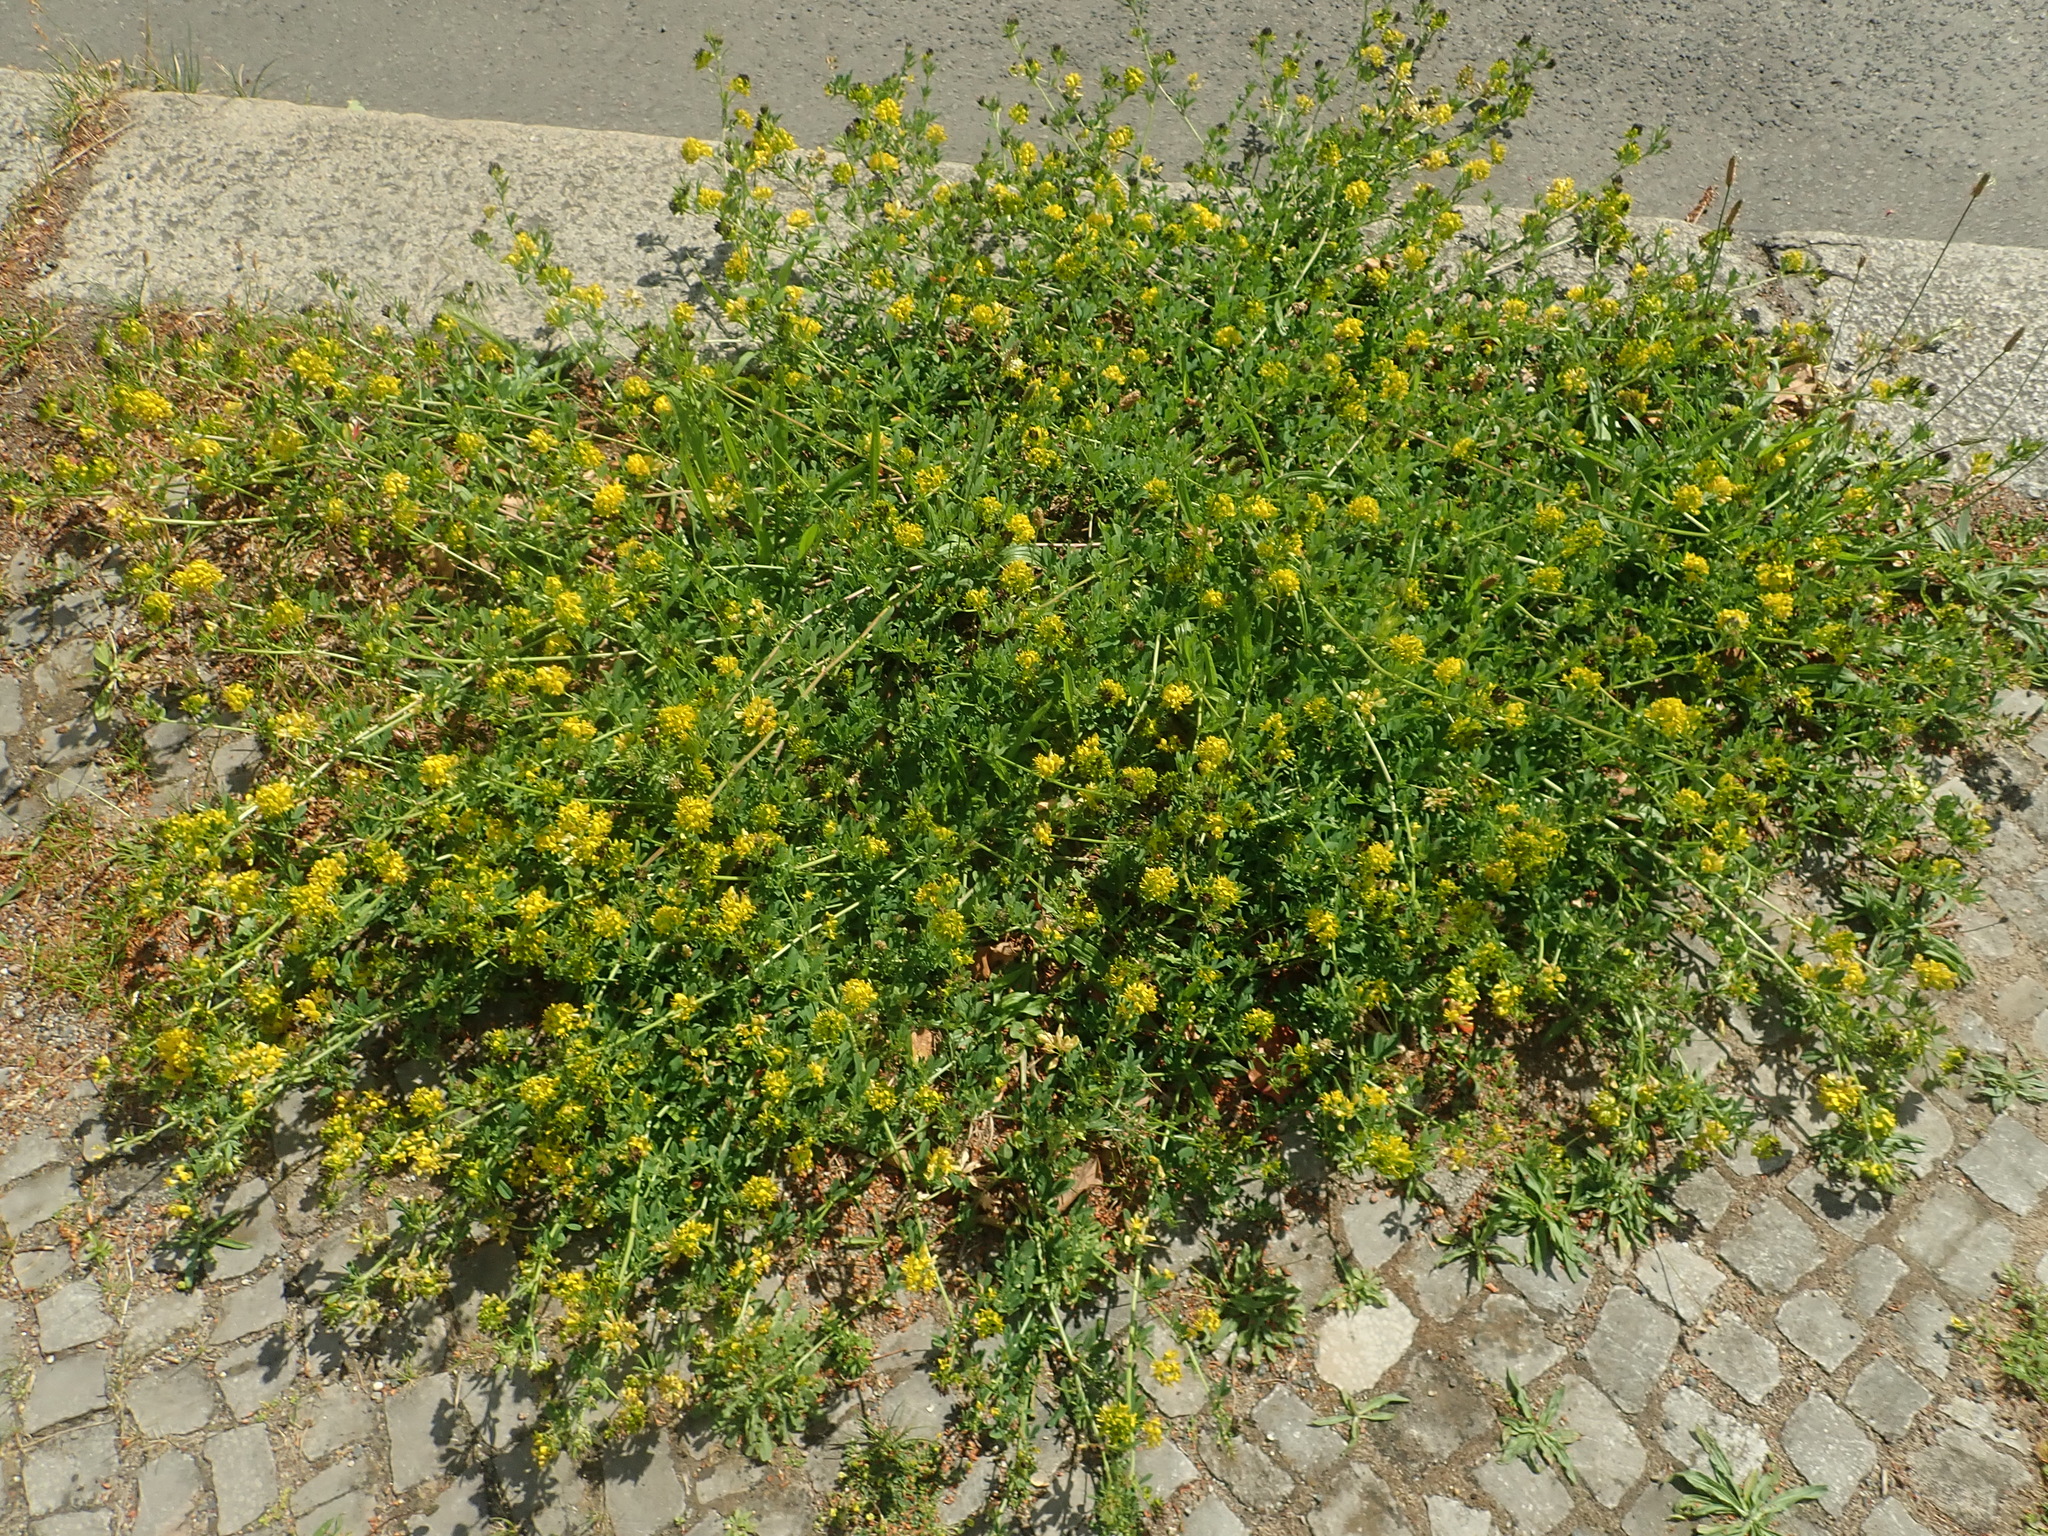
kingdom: Plantae
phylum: Tracheophyta
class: Magnoliopsida
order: Fabales
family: Fabaceae
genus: Medicago
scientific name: Medicago varia
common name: Sand lucerne
